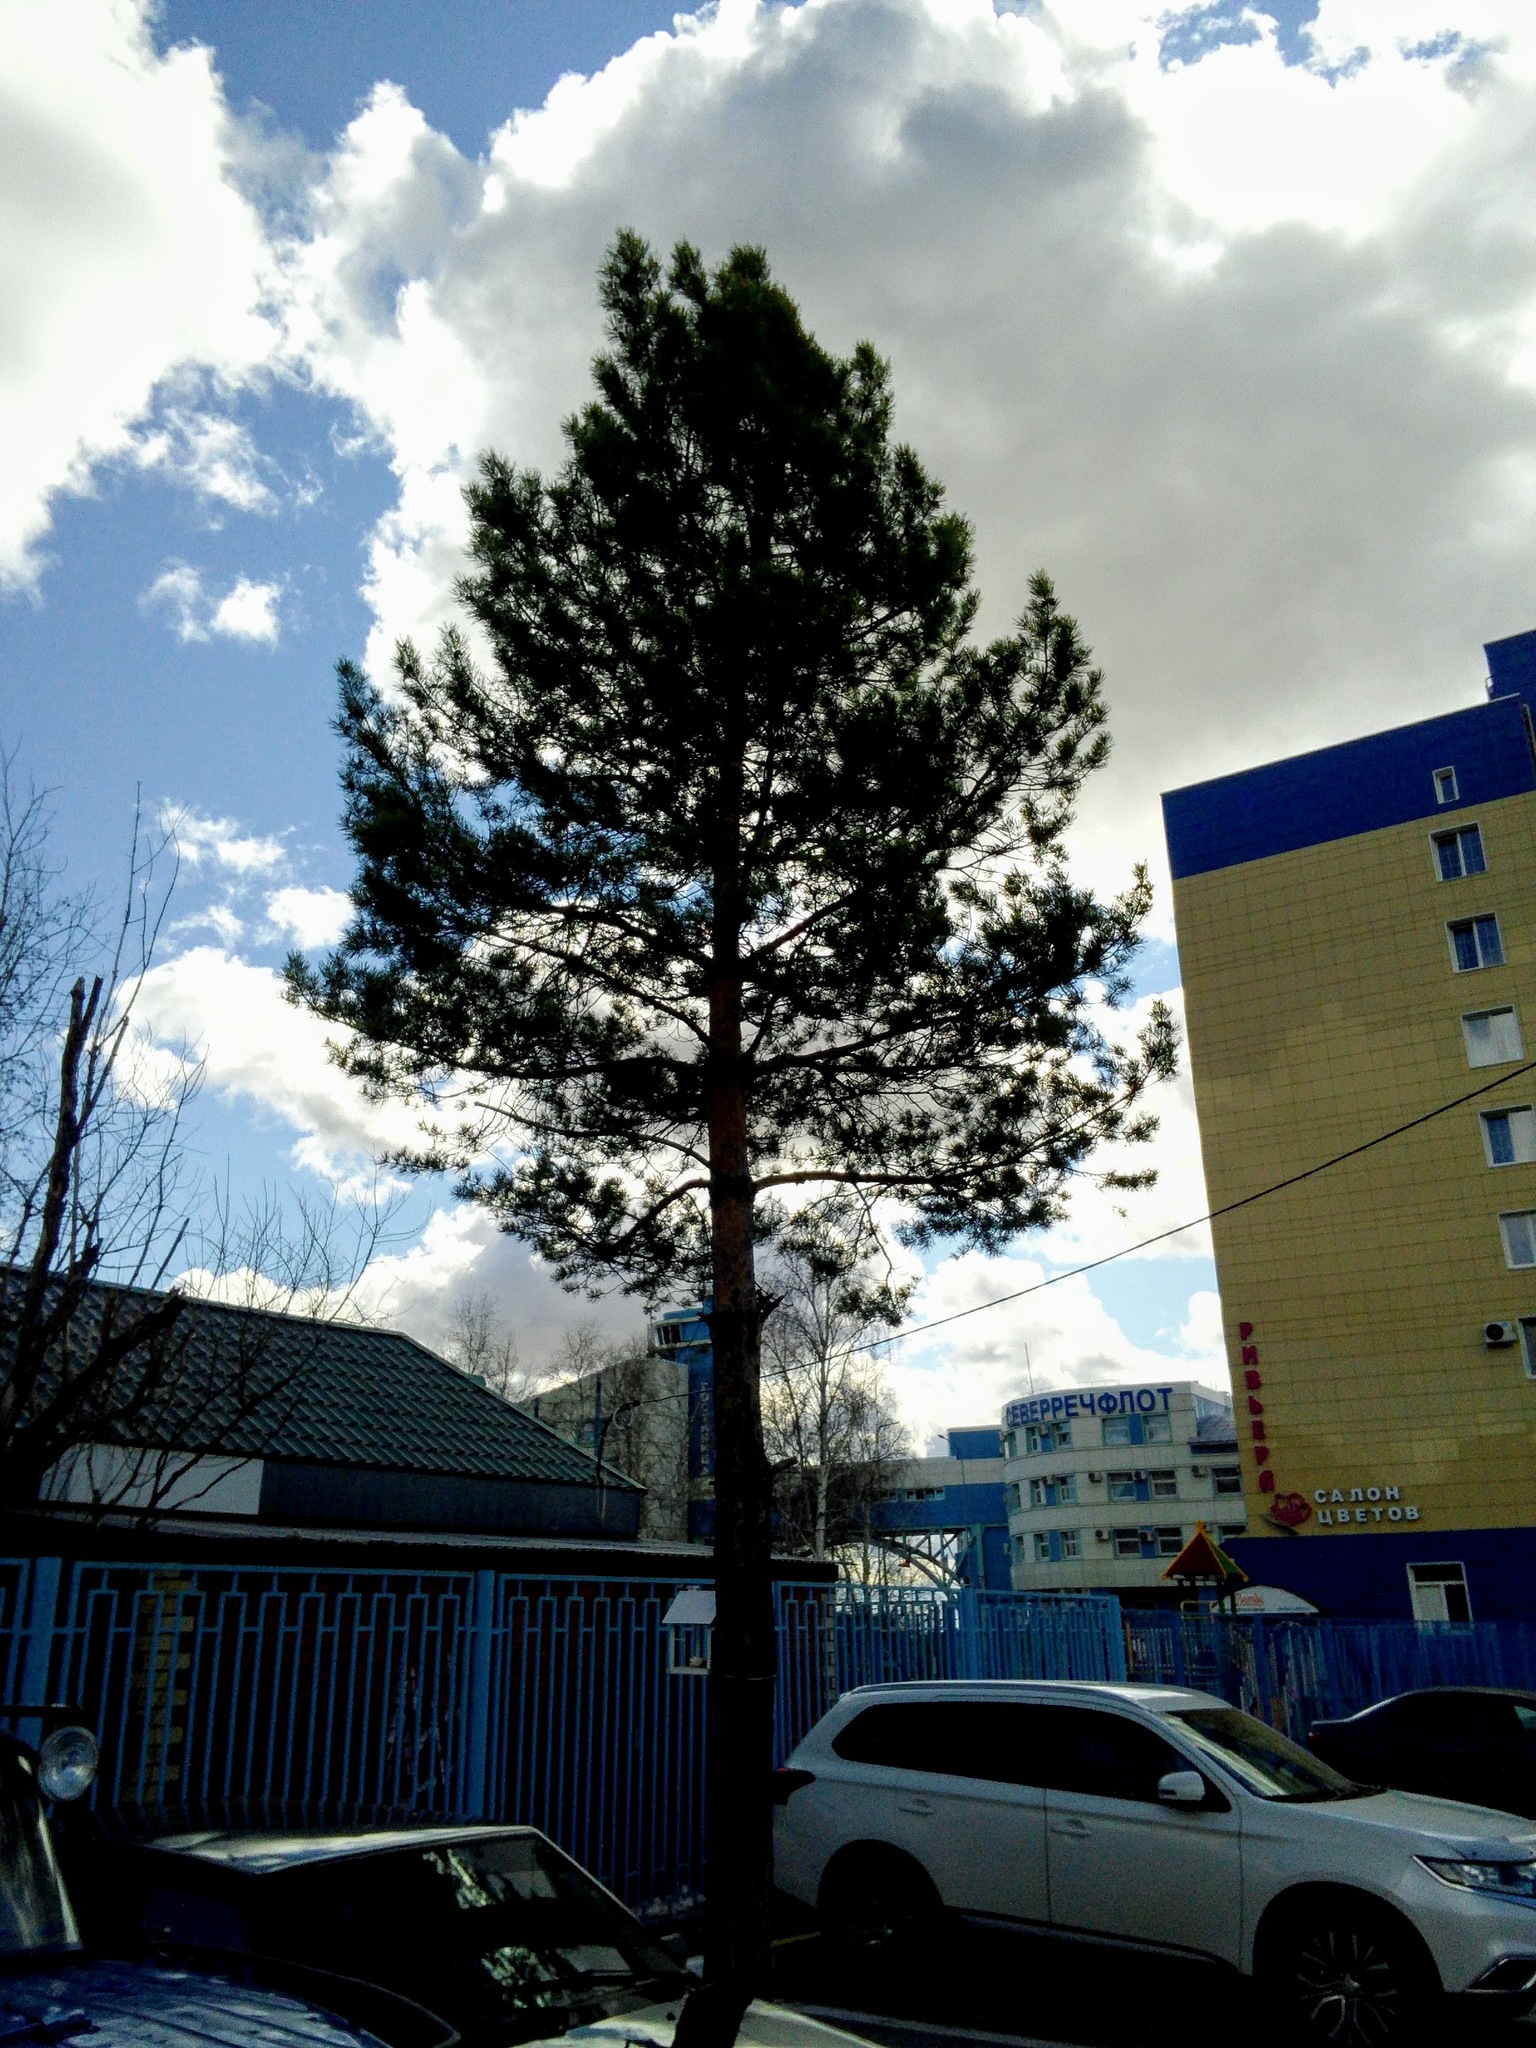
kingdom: Plantae
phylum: Tracheophyta
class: Pinopsida
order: Pinales
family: Pinaceae
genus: Pinus
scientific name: Pinus sylvestris
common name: Scots pine
